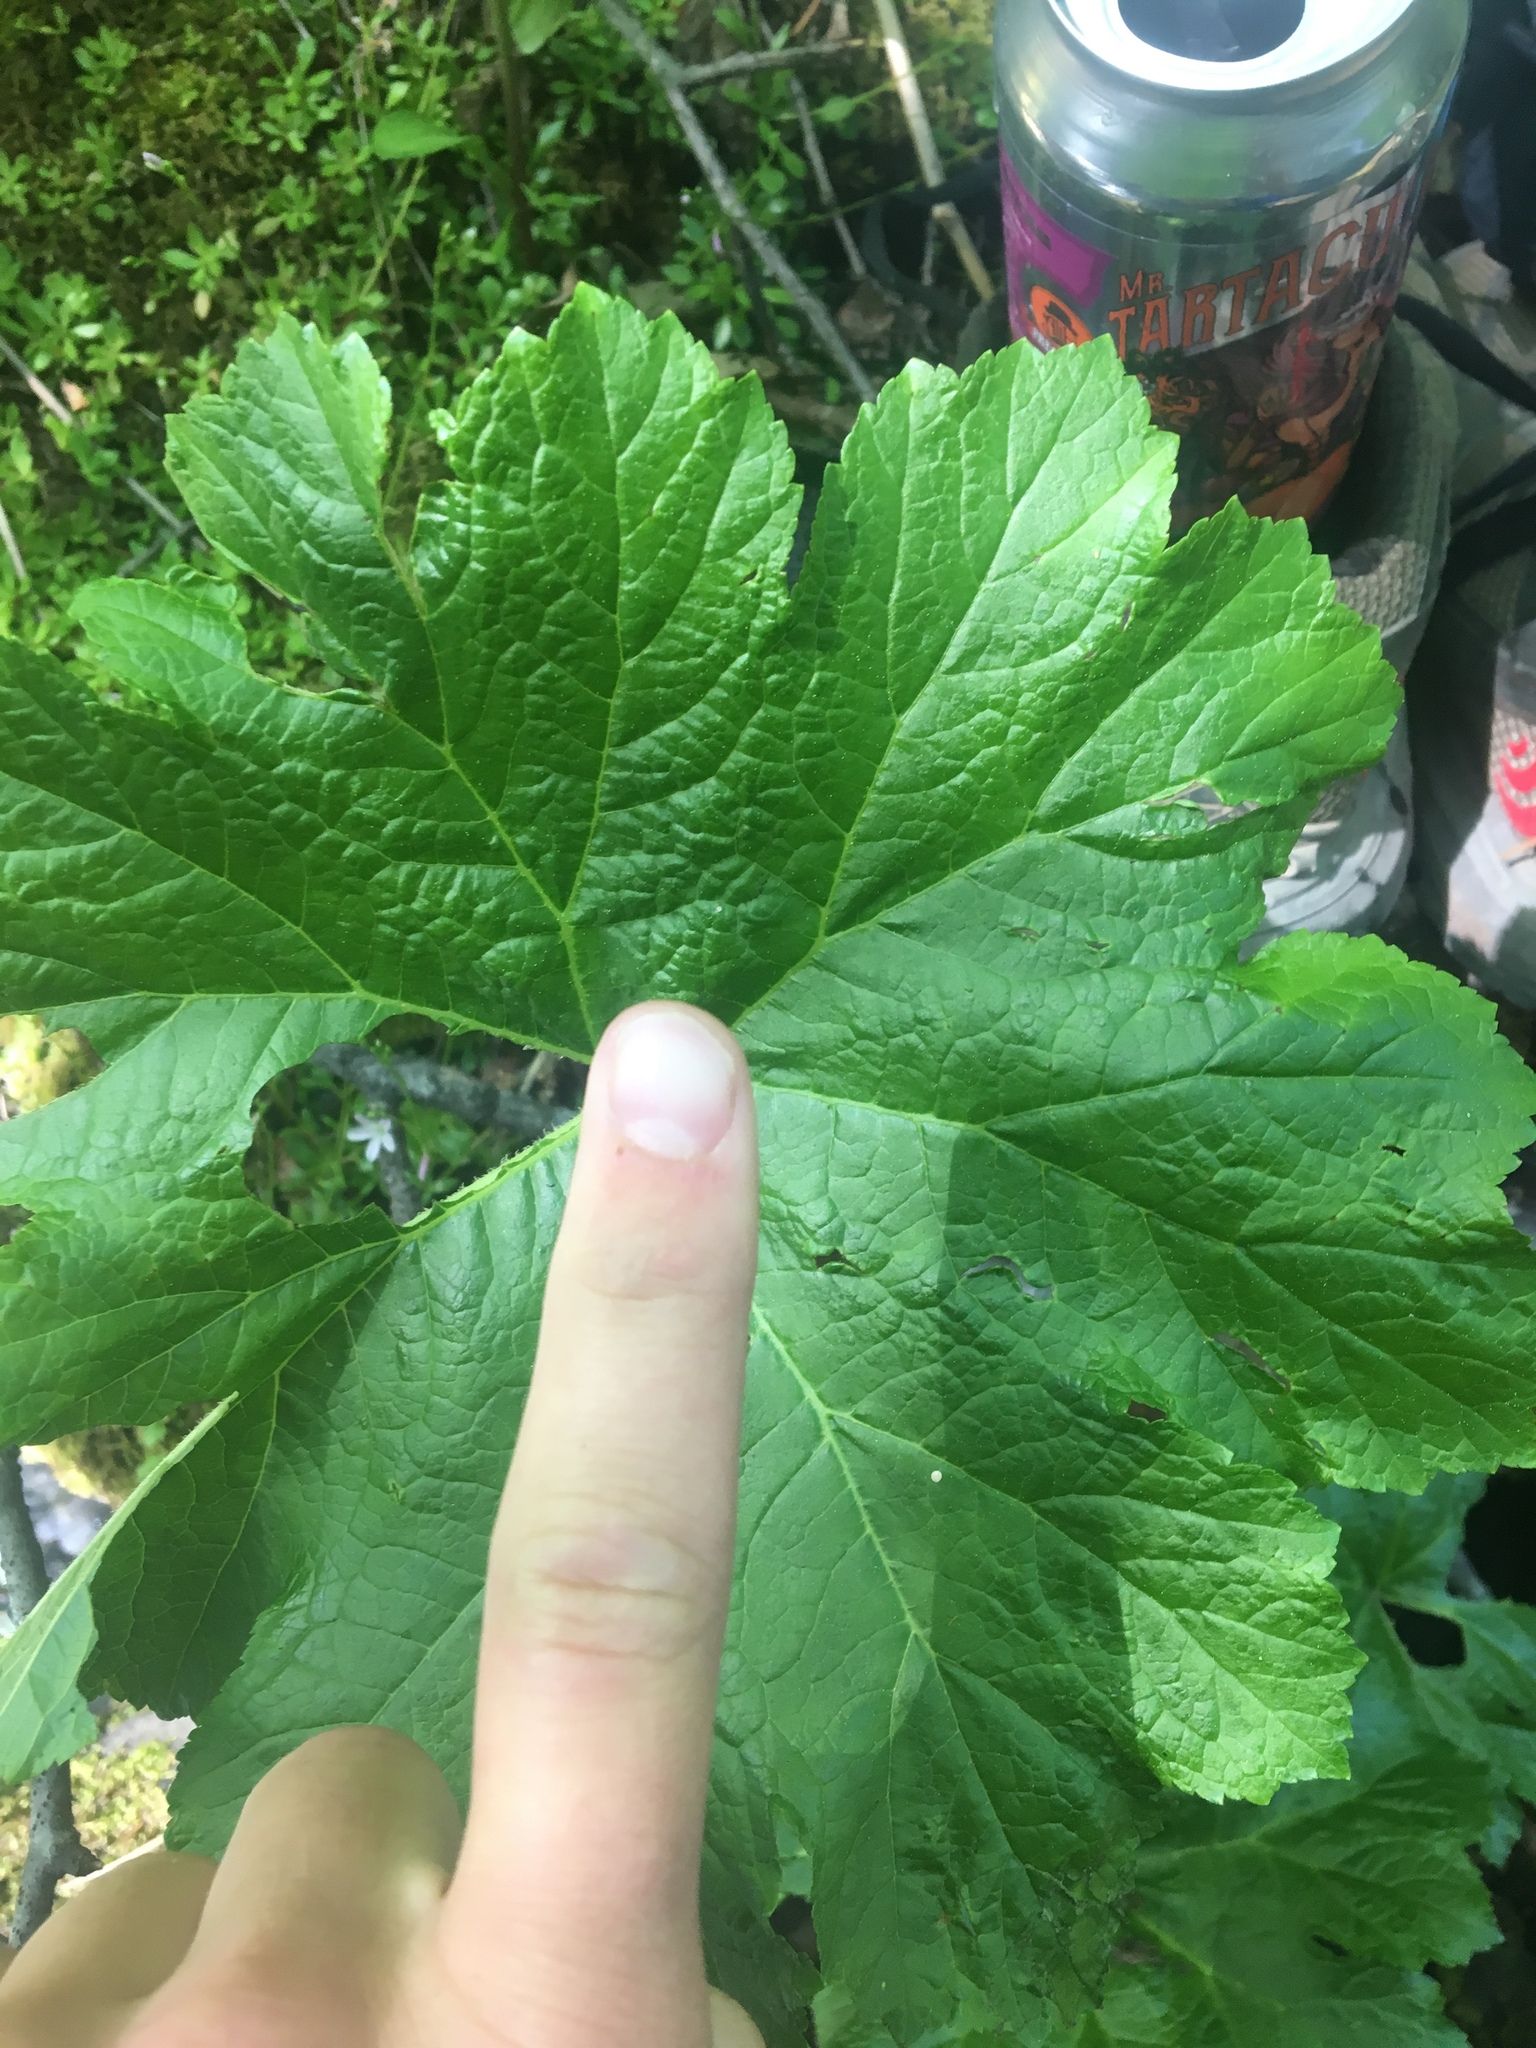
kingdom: Plantae
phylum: Tracheophyta
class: Magnoliopsida
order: Saxifragales
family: Saxifragaceae
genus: Darmera
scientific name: Darmera peltata
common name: Indian-rhubarb
